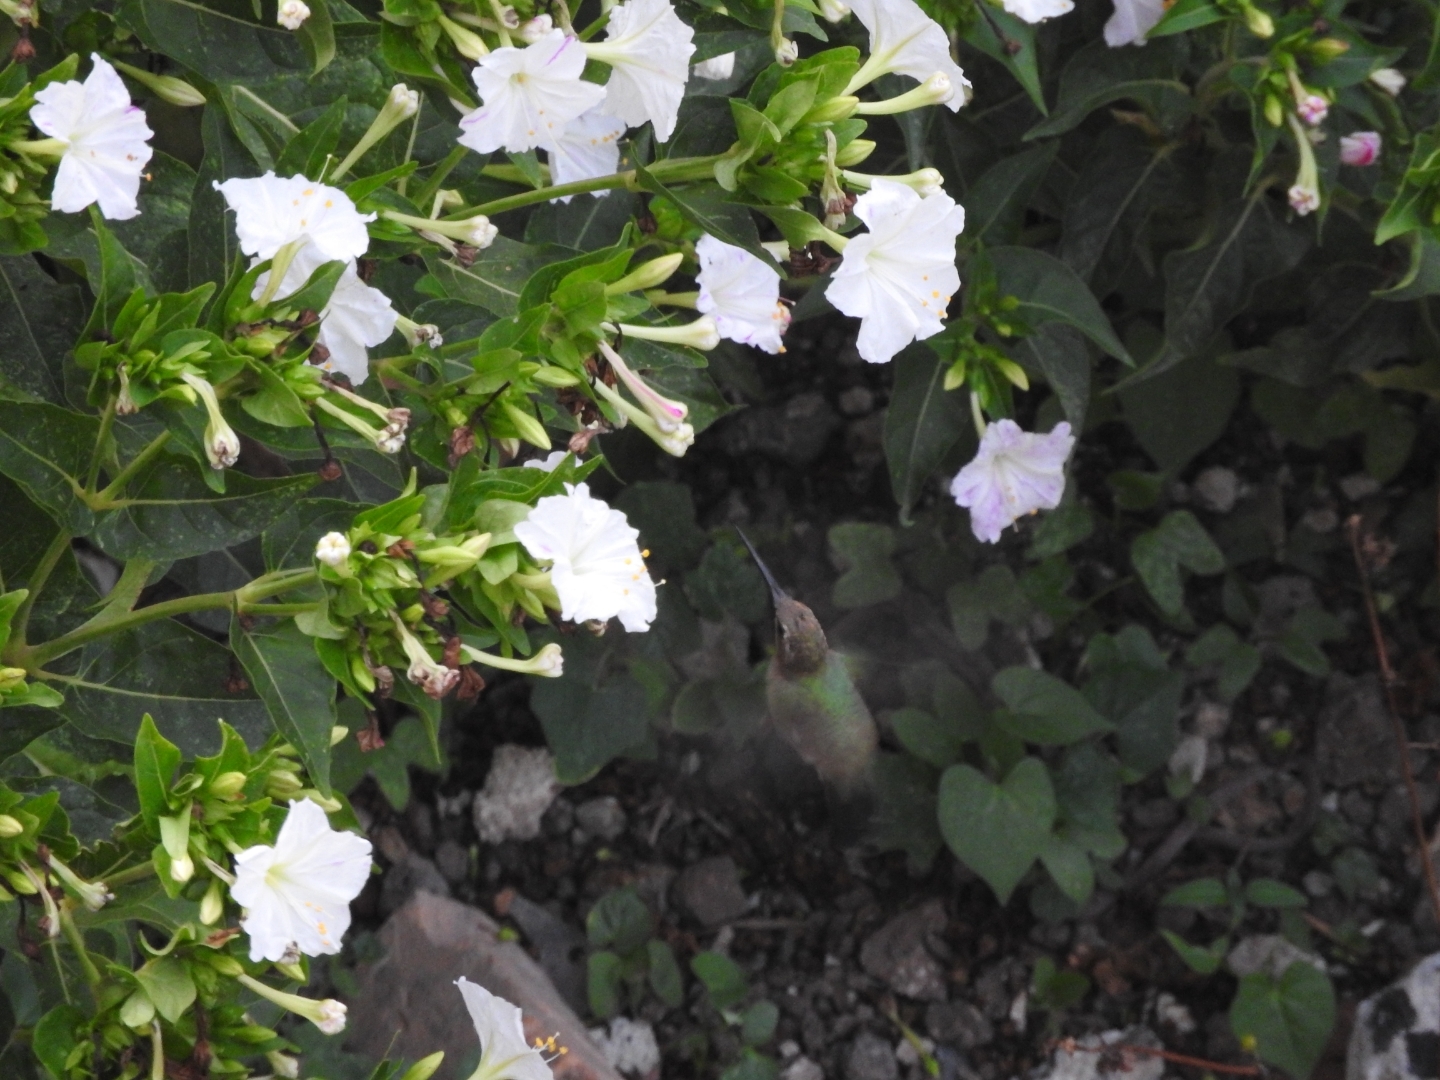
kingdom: Animalia
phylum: Chordata
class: Aves
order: Apodiformes
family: Trochilidae
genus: Cynanthus
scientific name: Cynanthus latirostris
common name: Broad-billed hummingbird
